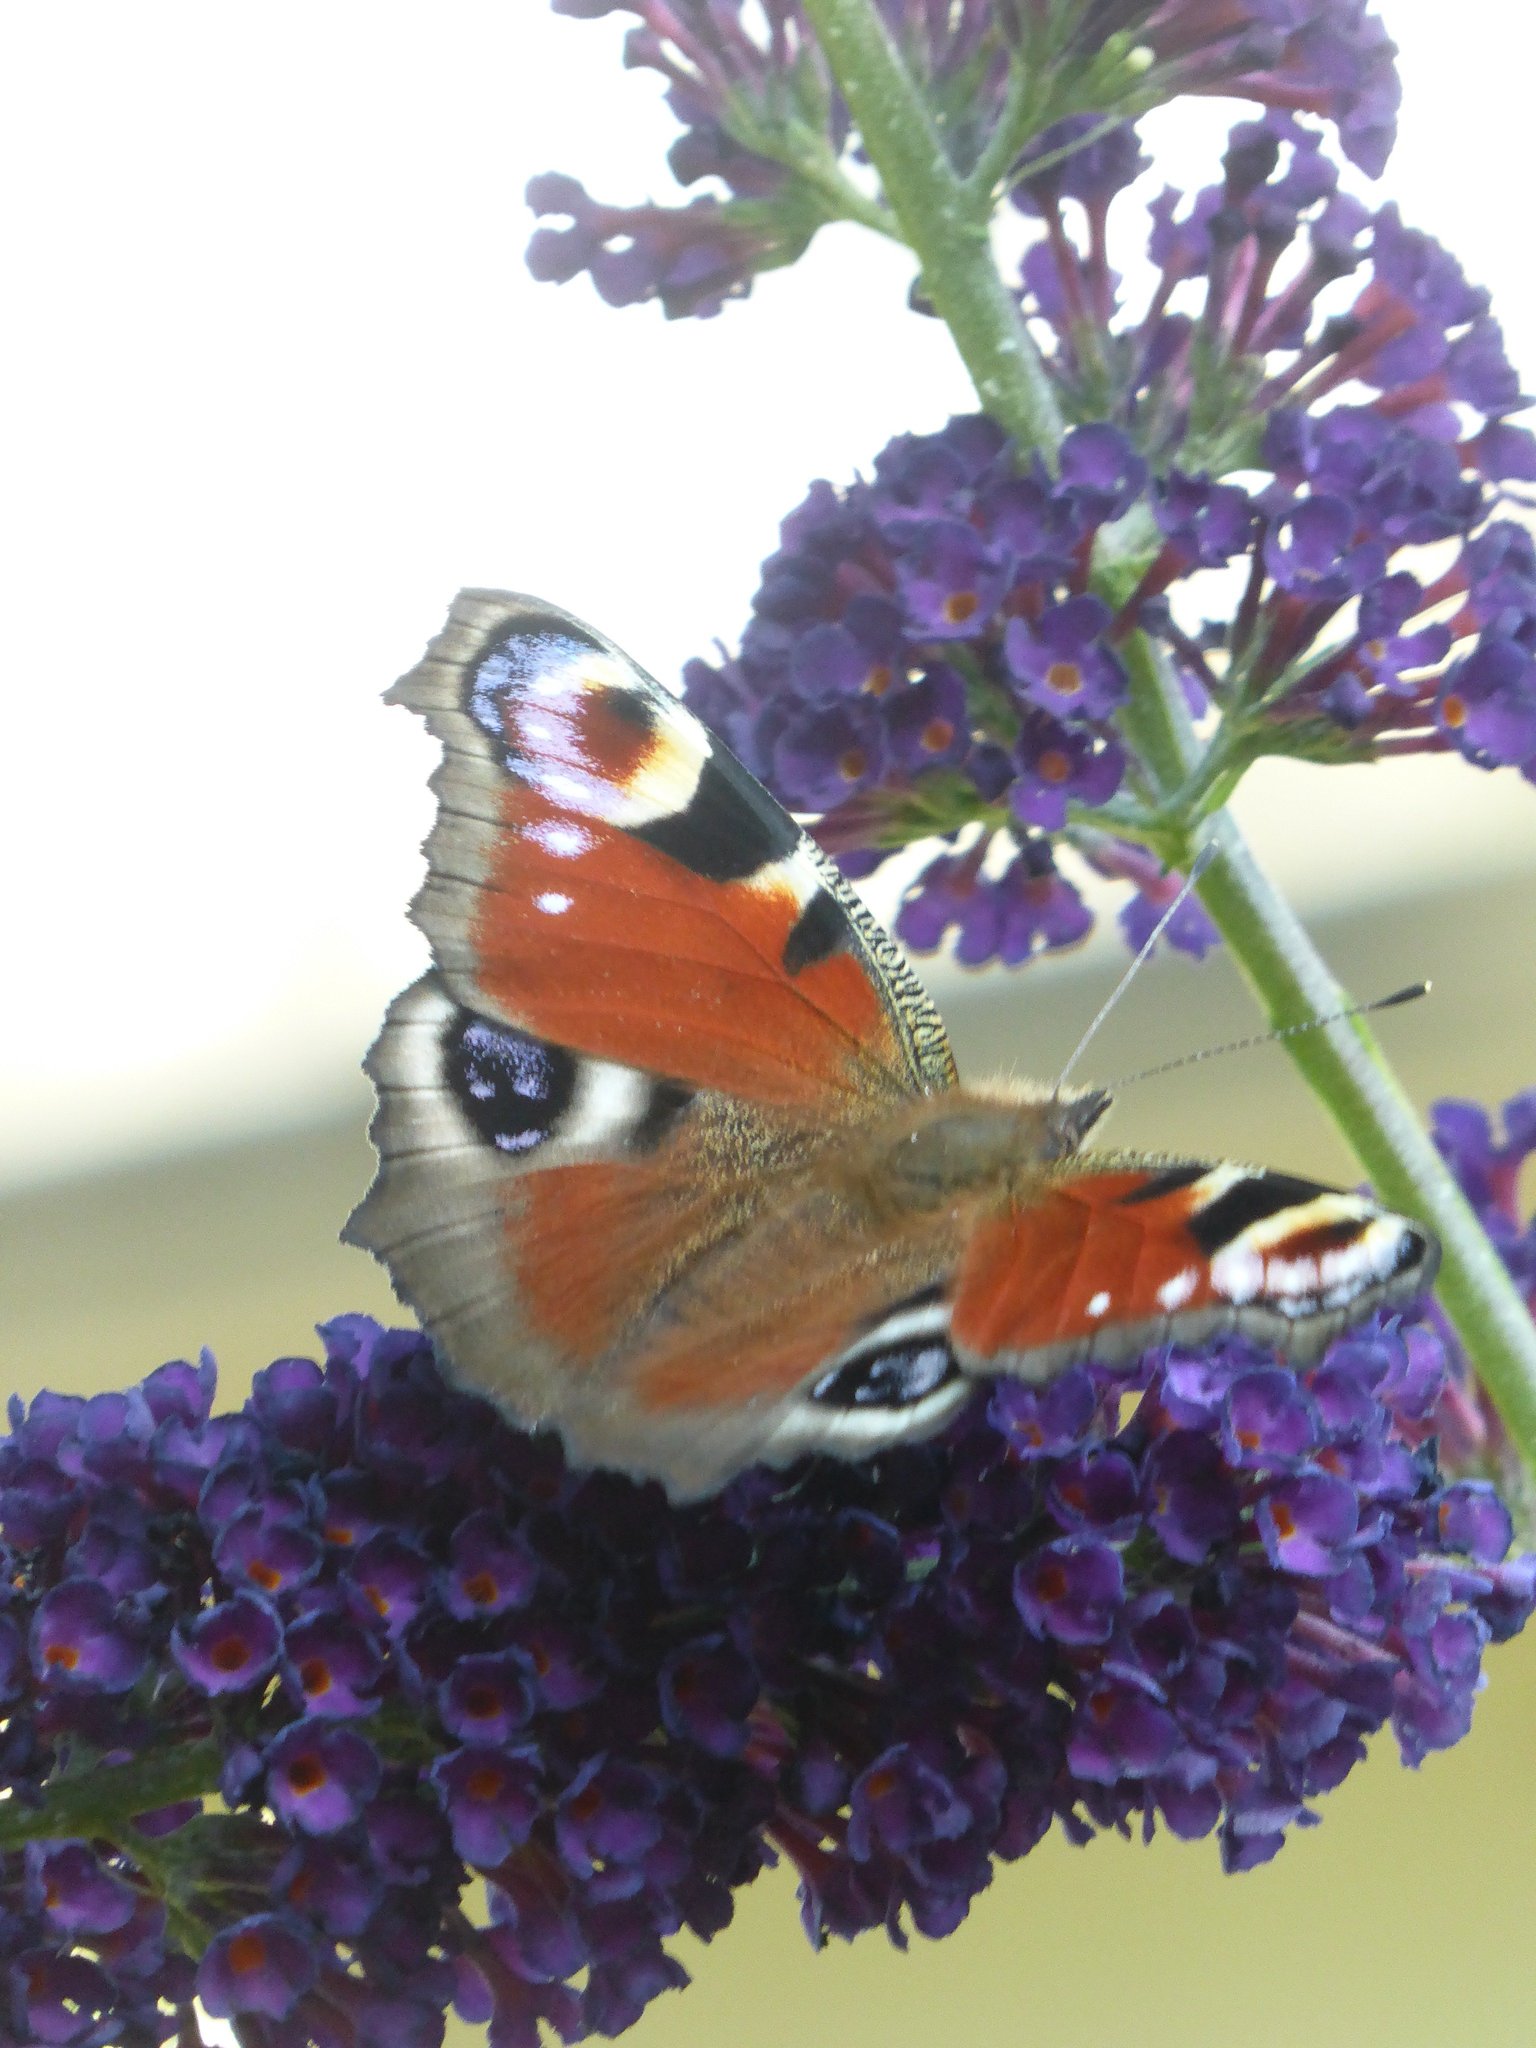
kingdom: Animalia
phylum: Arthropoda
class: Insecta
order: Lepidoptera
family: Nymphalidae
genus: Aglais
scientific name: Aglais io
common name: Peacock
